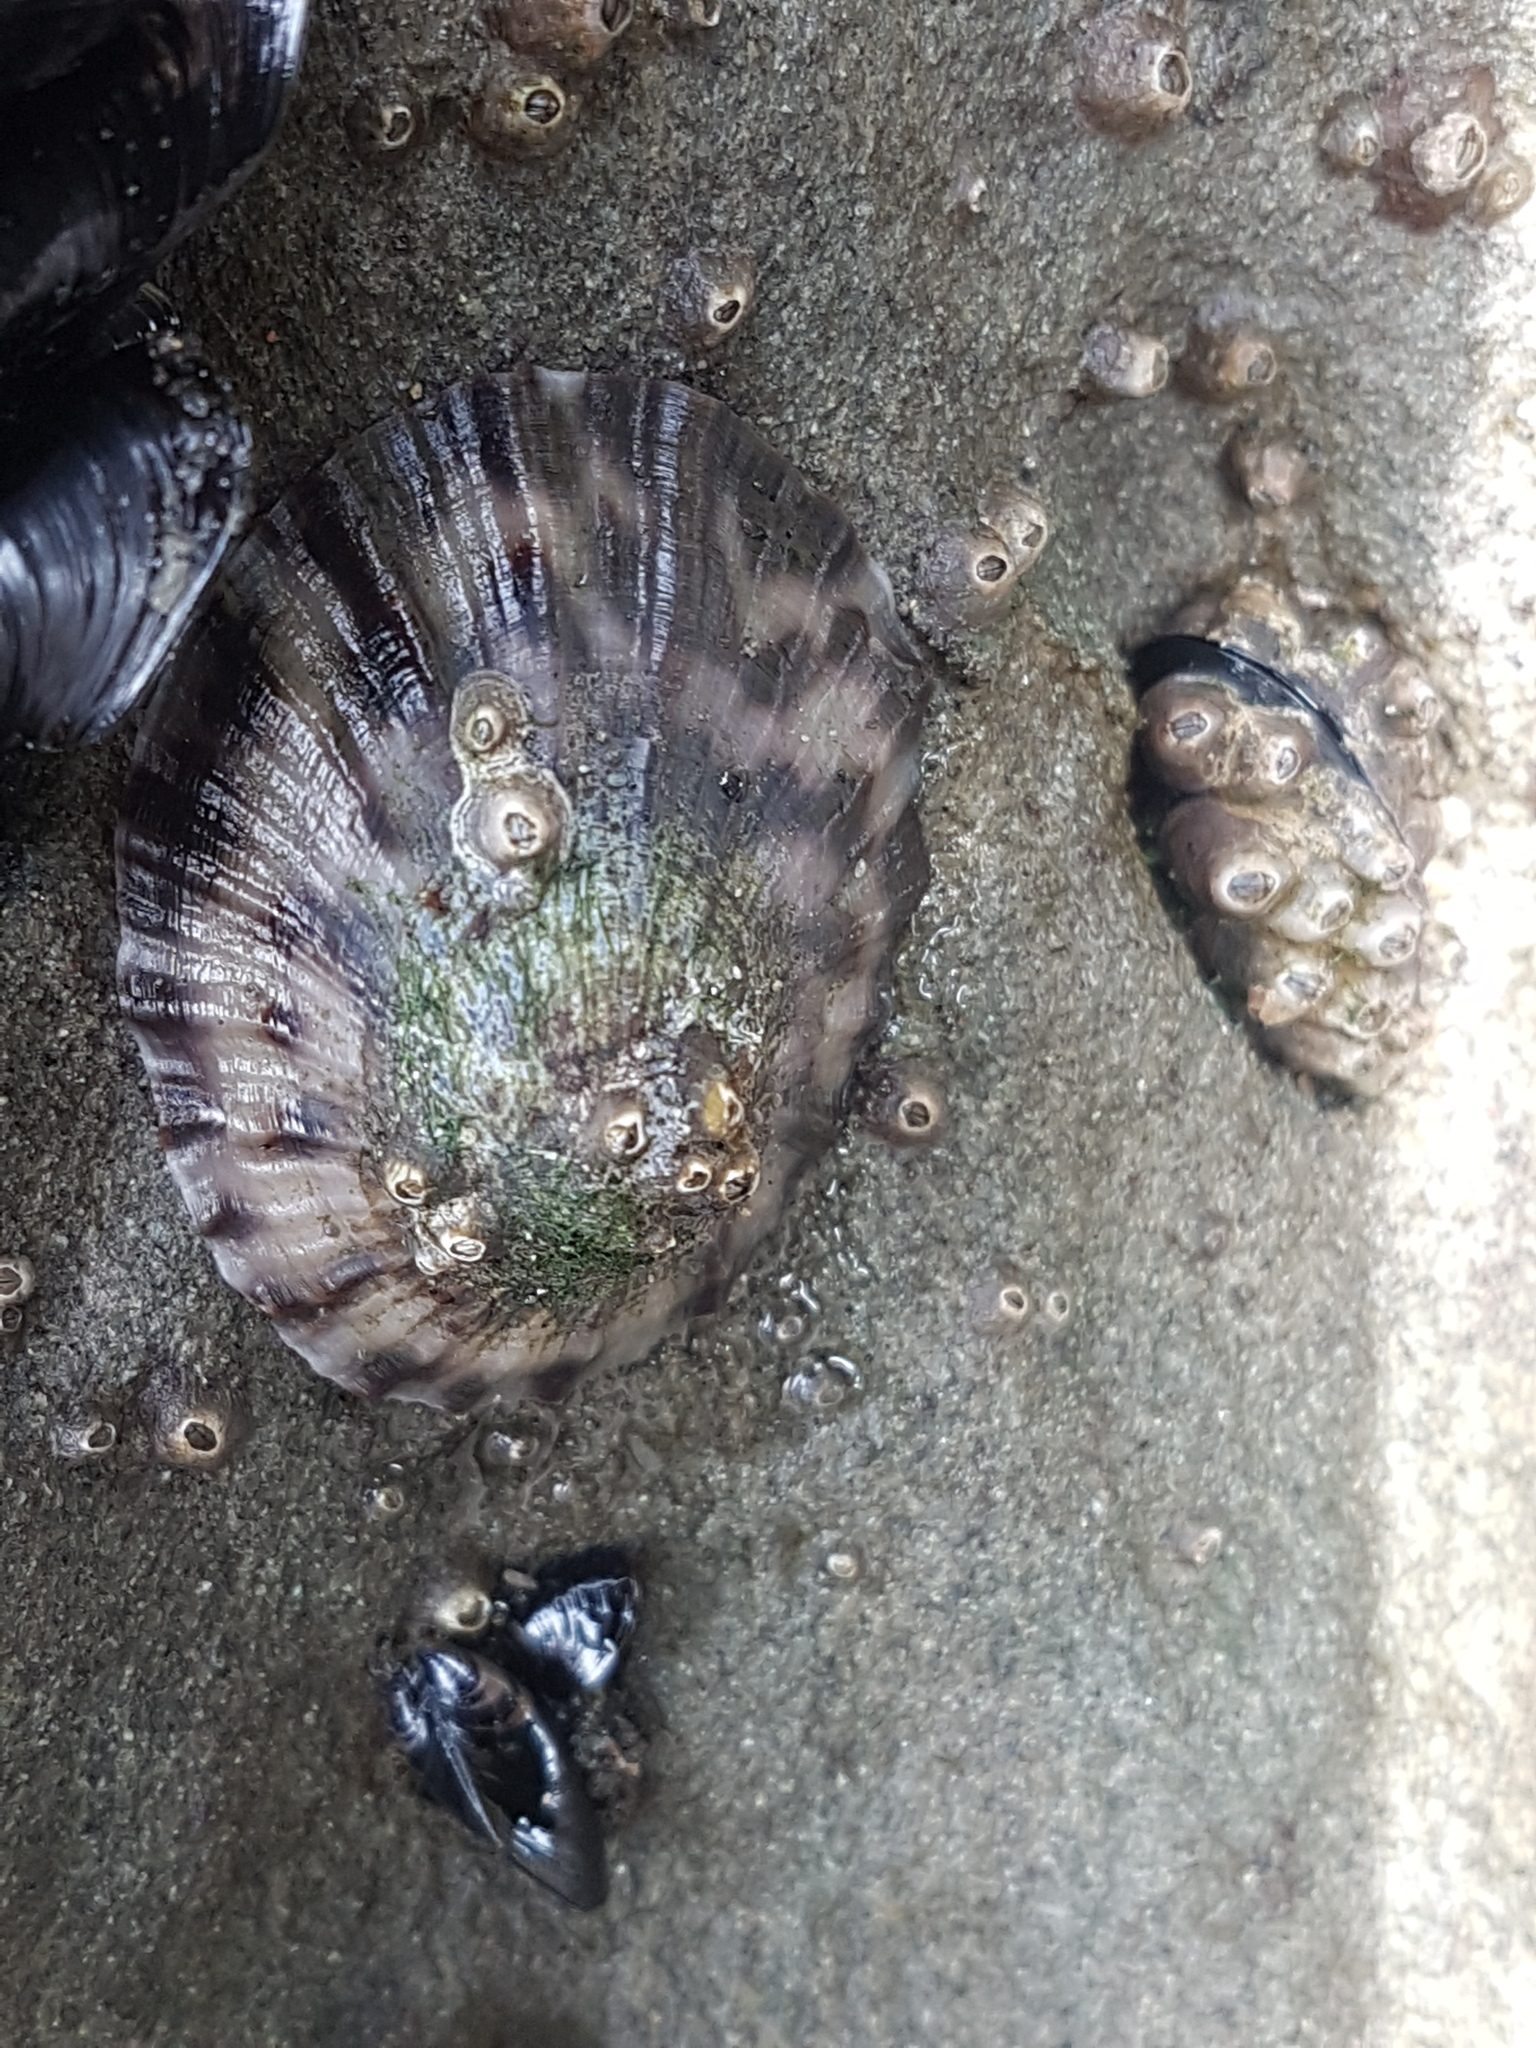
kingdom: Animalia
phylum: Mollusca
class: Gastropoda
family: Nacellidae
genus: Cellana
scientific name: Cellana radians
